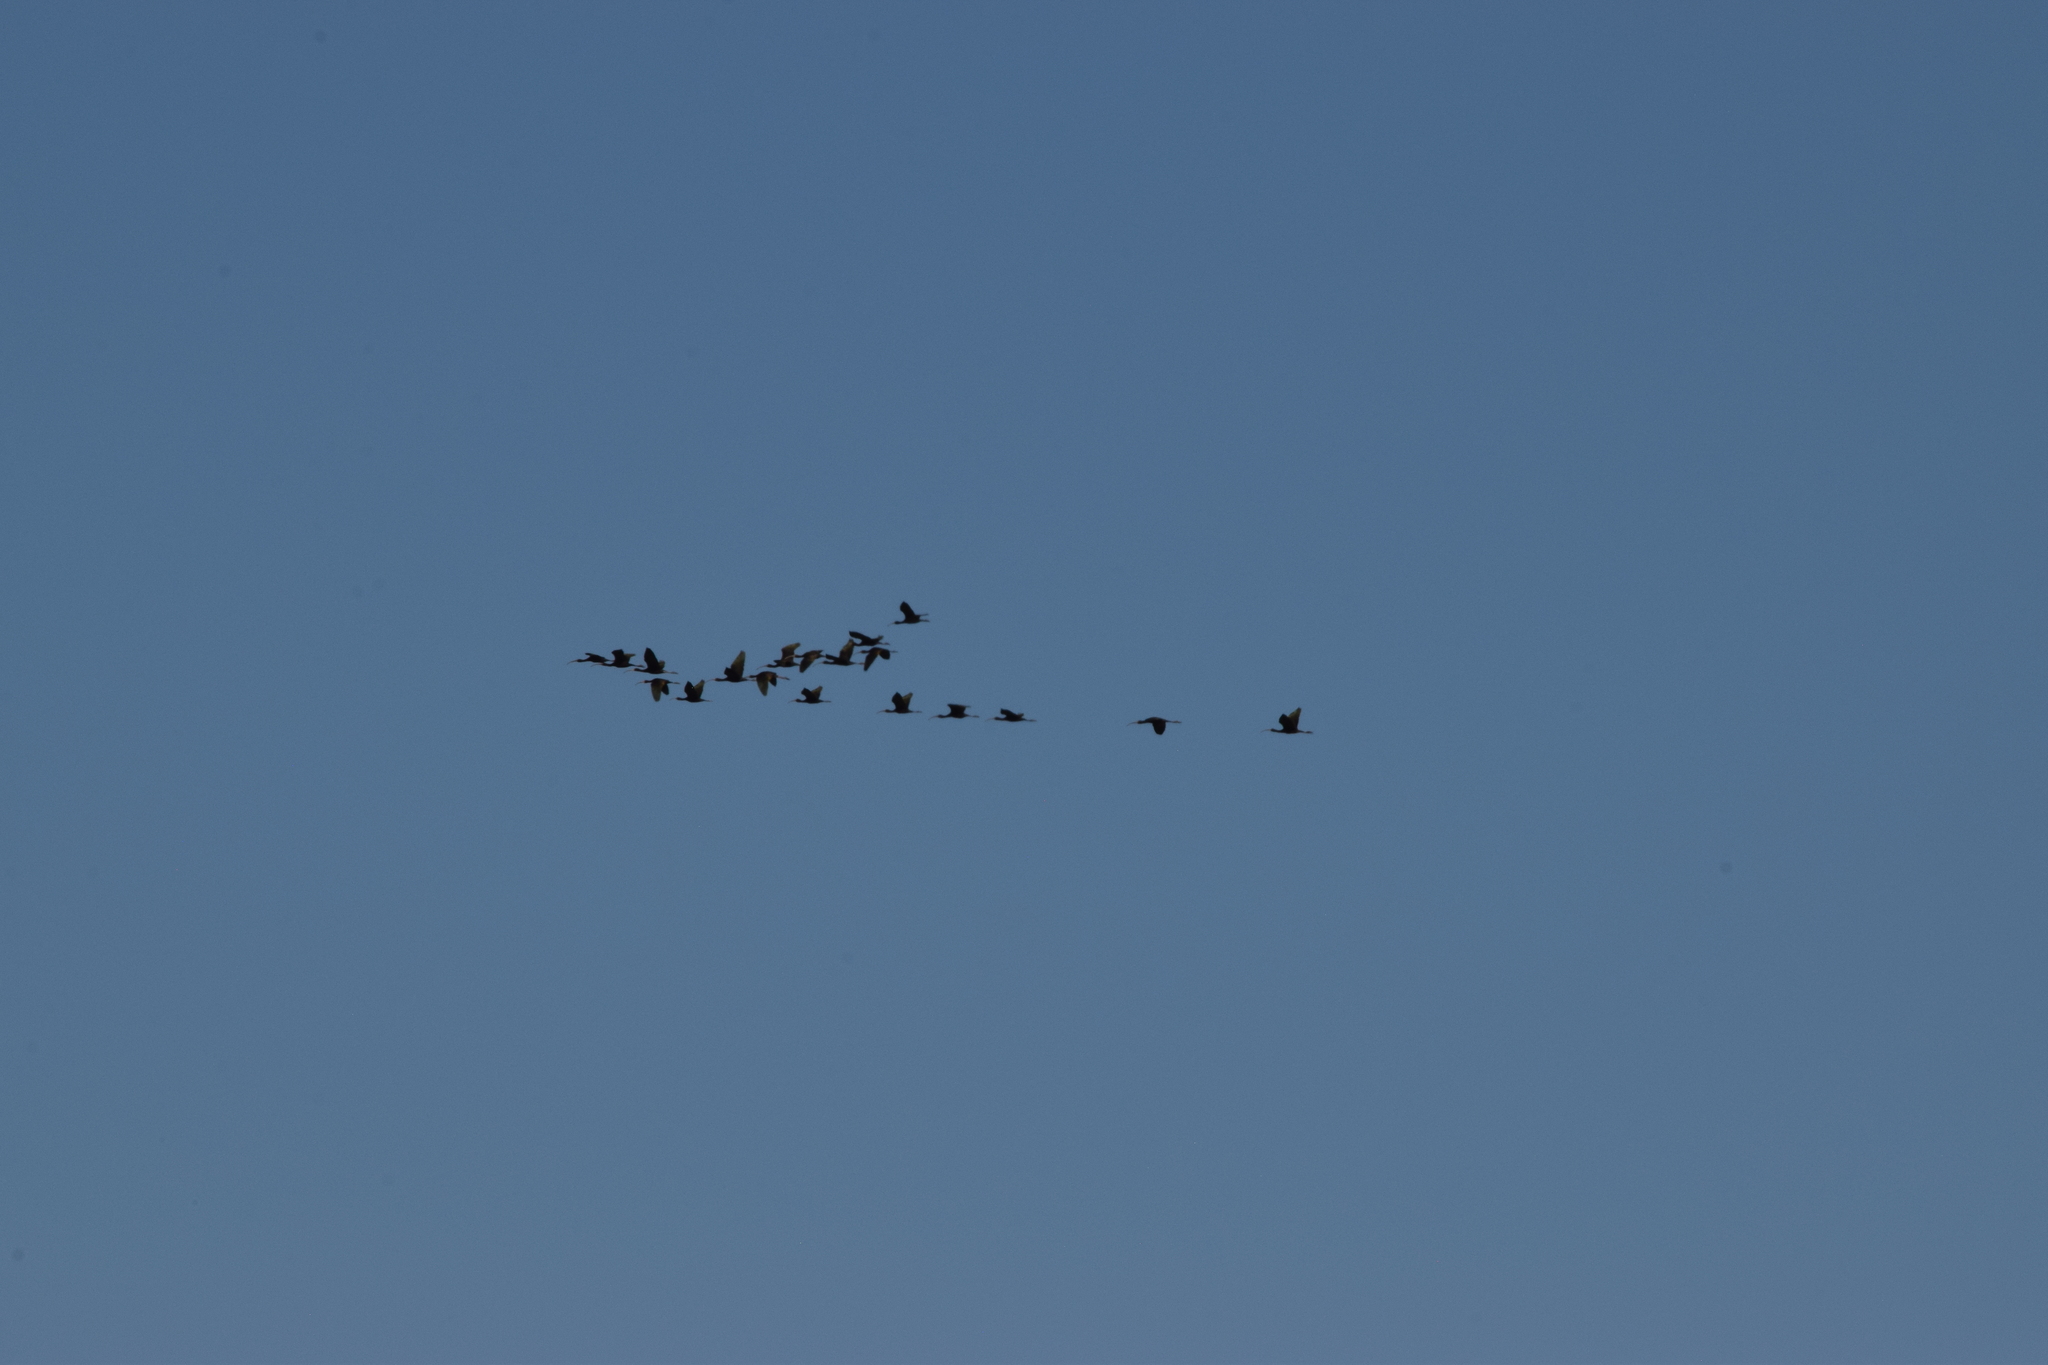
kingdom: Animalia
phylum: Chordata
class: Aves
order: Pelecaniformes
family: Threskiornithidae
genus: Plegadis
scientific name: Plegadis chihi
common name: White-faced ibis
